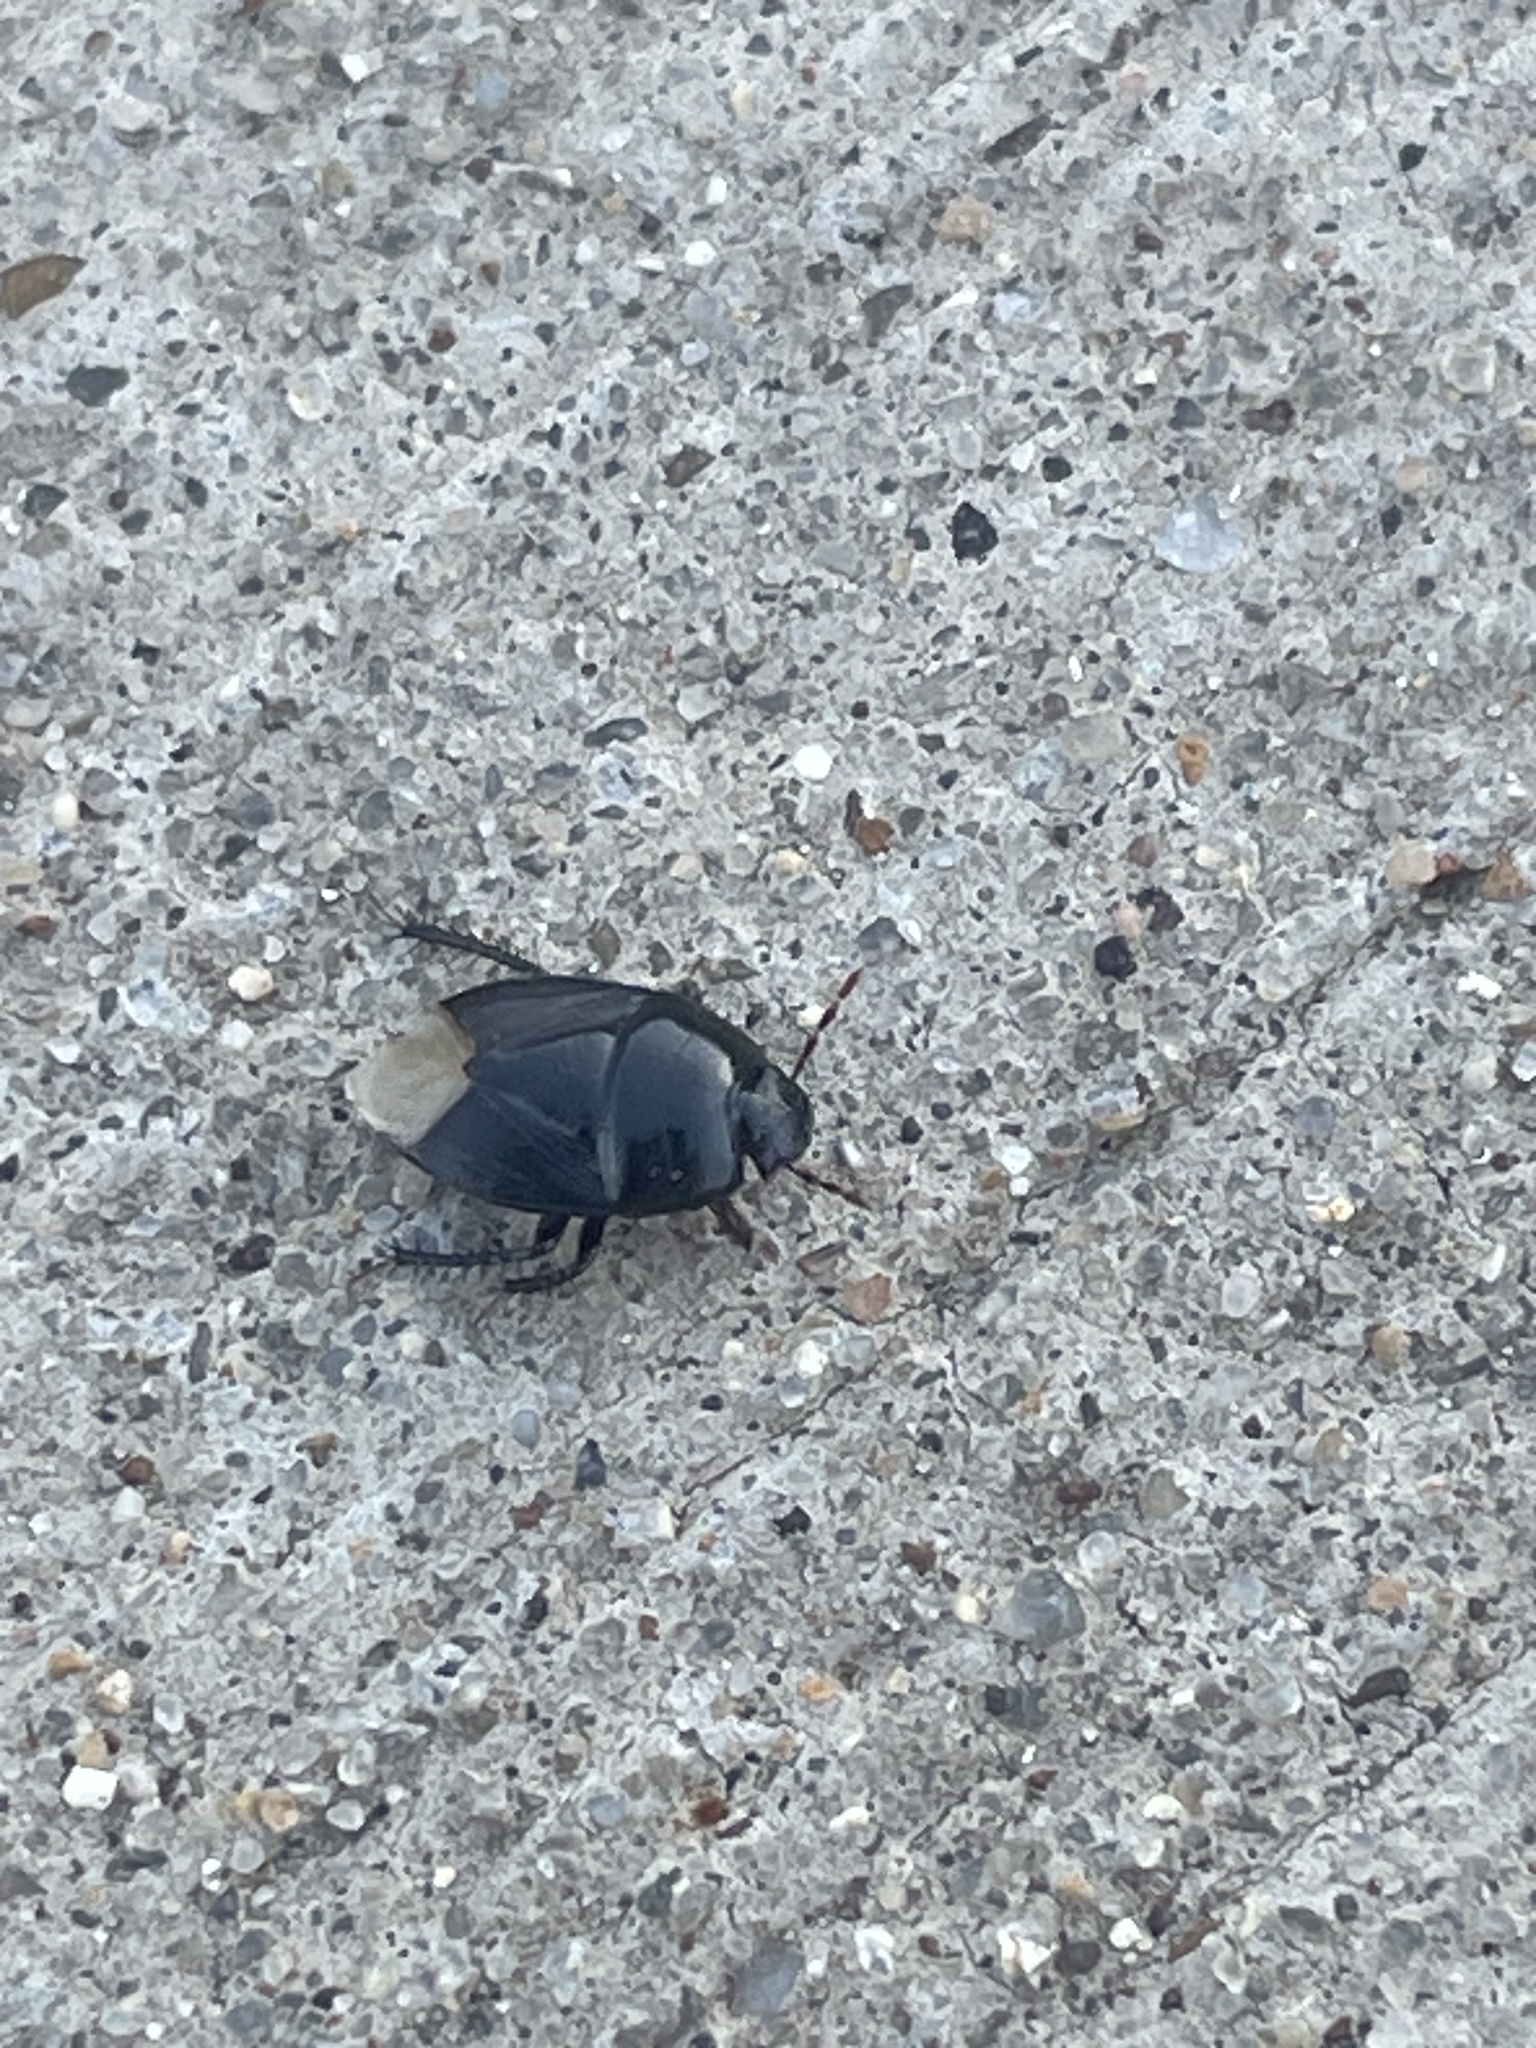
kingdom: Animalia
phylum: Arthropoda
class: Insecta
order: Hemiptera
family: Cydnidae
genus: Pangaeus
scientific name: Pangaeus bilineatus
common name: Burrower bug
